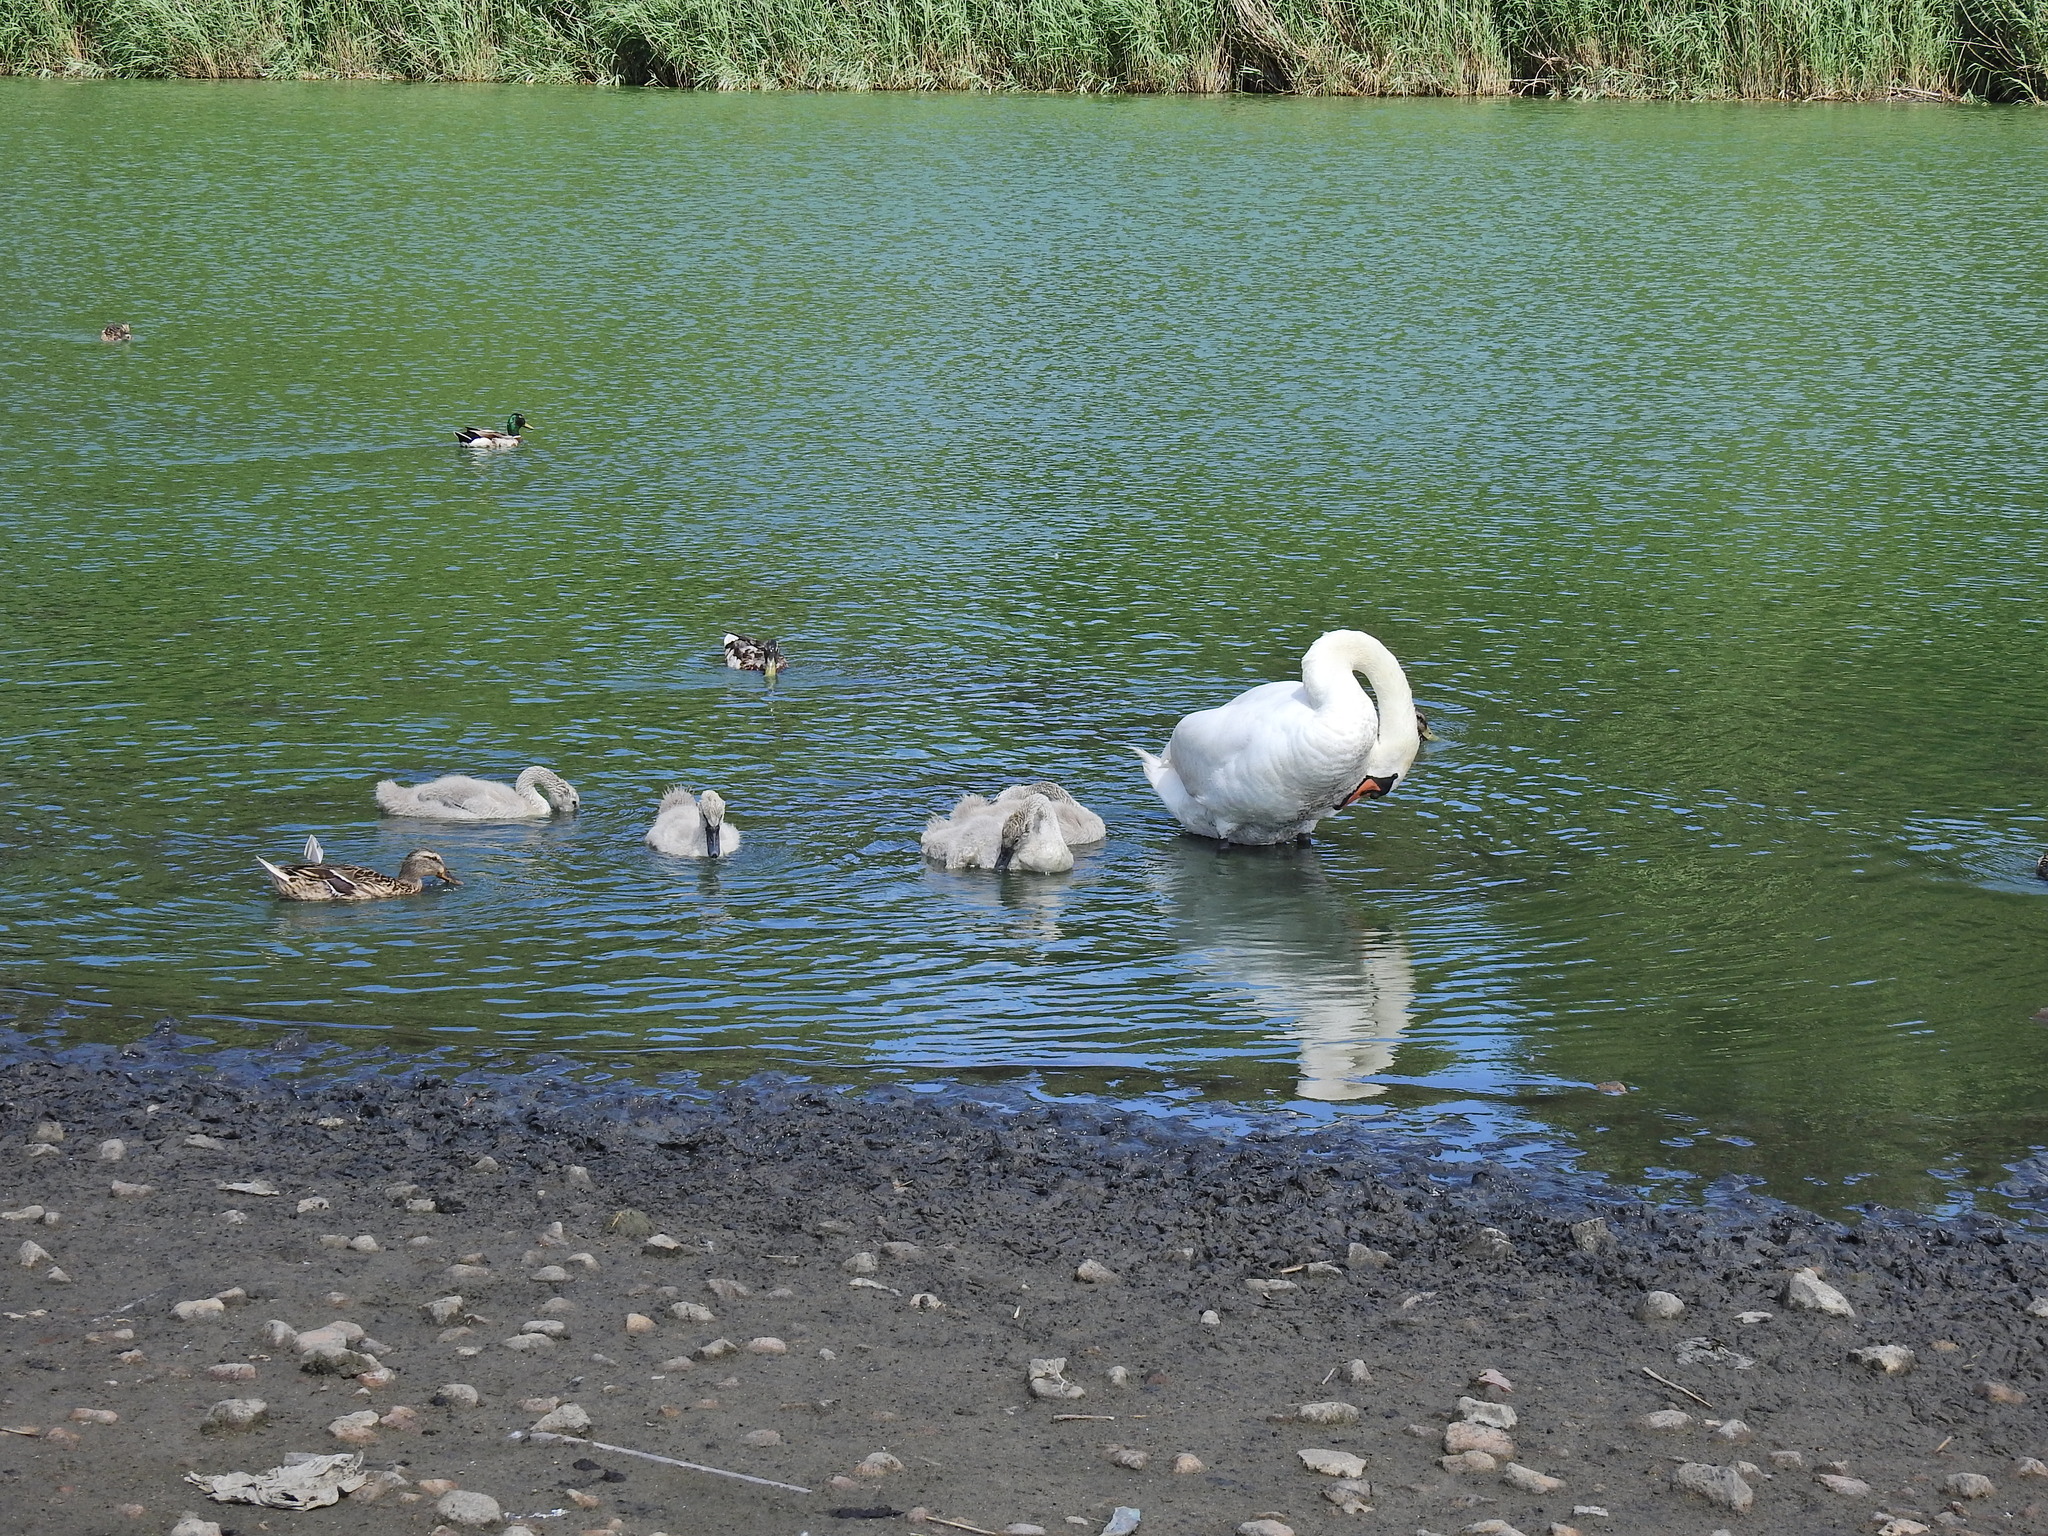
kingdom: Animalia
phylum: Chordata
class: Aves
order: Anseriformes
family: Anatidae
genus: Cygnus
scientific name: Cygnus olor
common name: Mute swan
